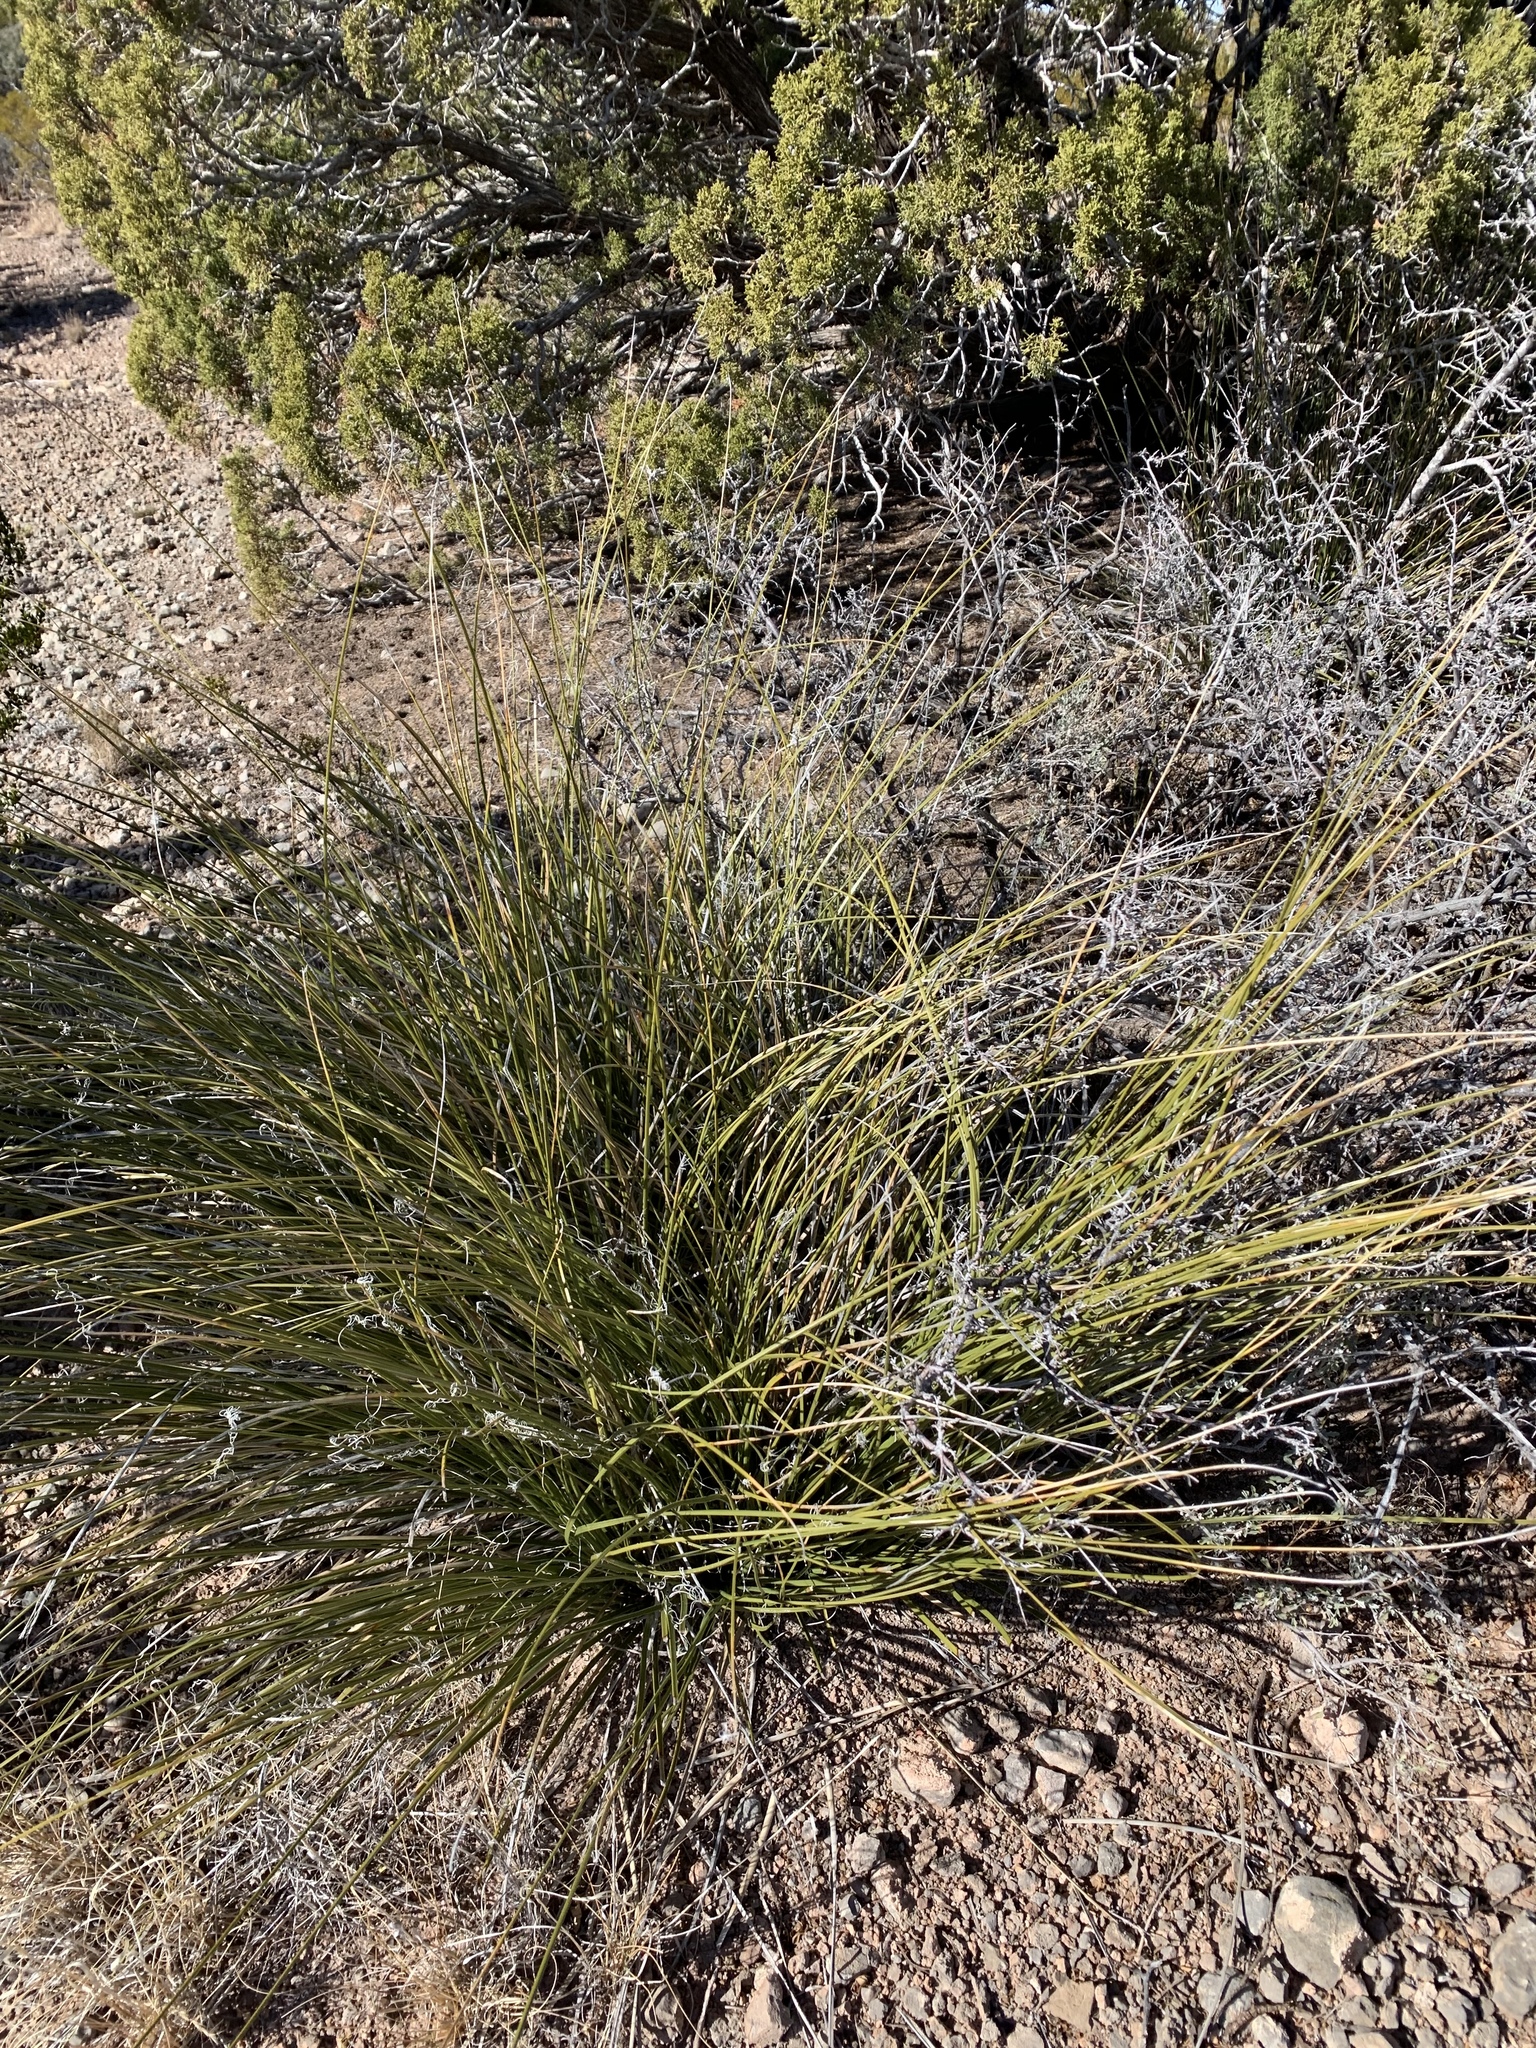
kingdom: Plantae
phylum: Tracheophyta
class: Liliopsida
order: Asparagales
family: Asparagaceae
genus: Nolina
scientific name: Nolina microcarpa
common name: Bear-grass
